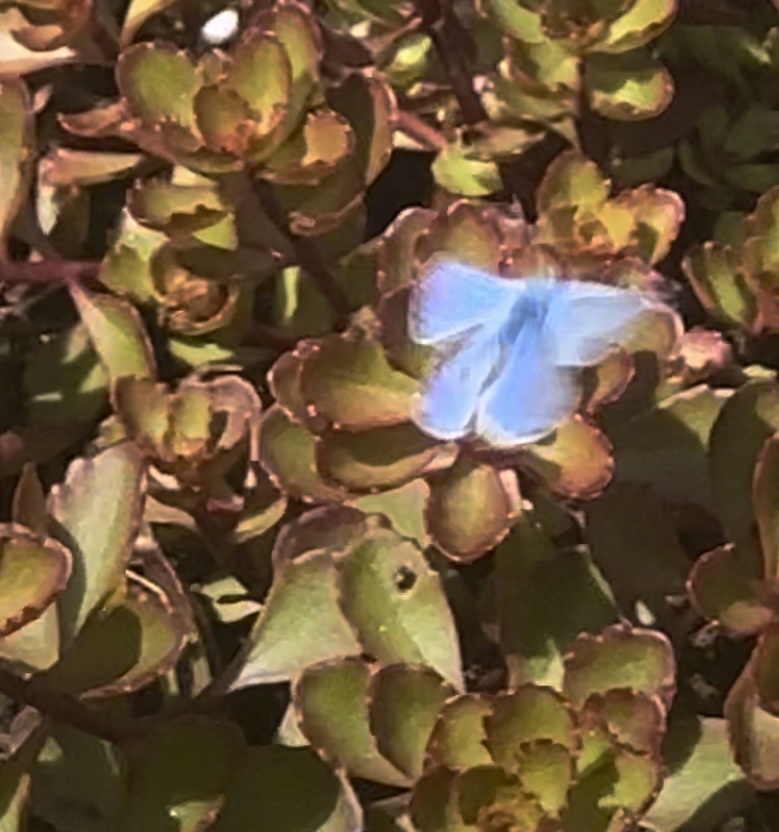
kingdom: Animalia
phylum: Arthropoda
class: Insecta
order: Lepidoptera
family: Lycaenidae
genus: Polyommatus
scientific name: Polyommatus icarus
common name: Common blue
